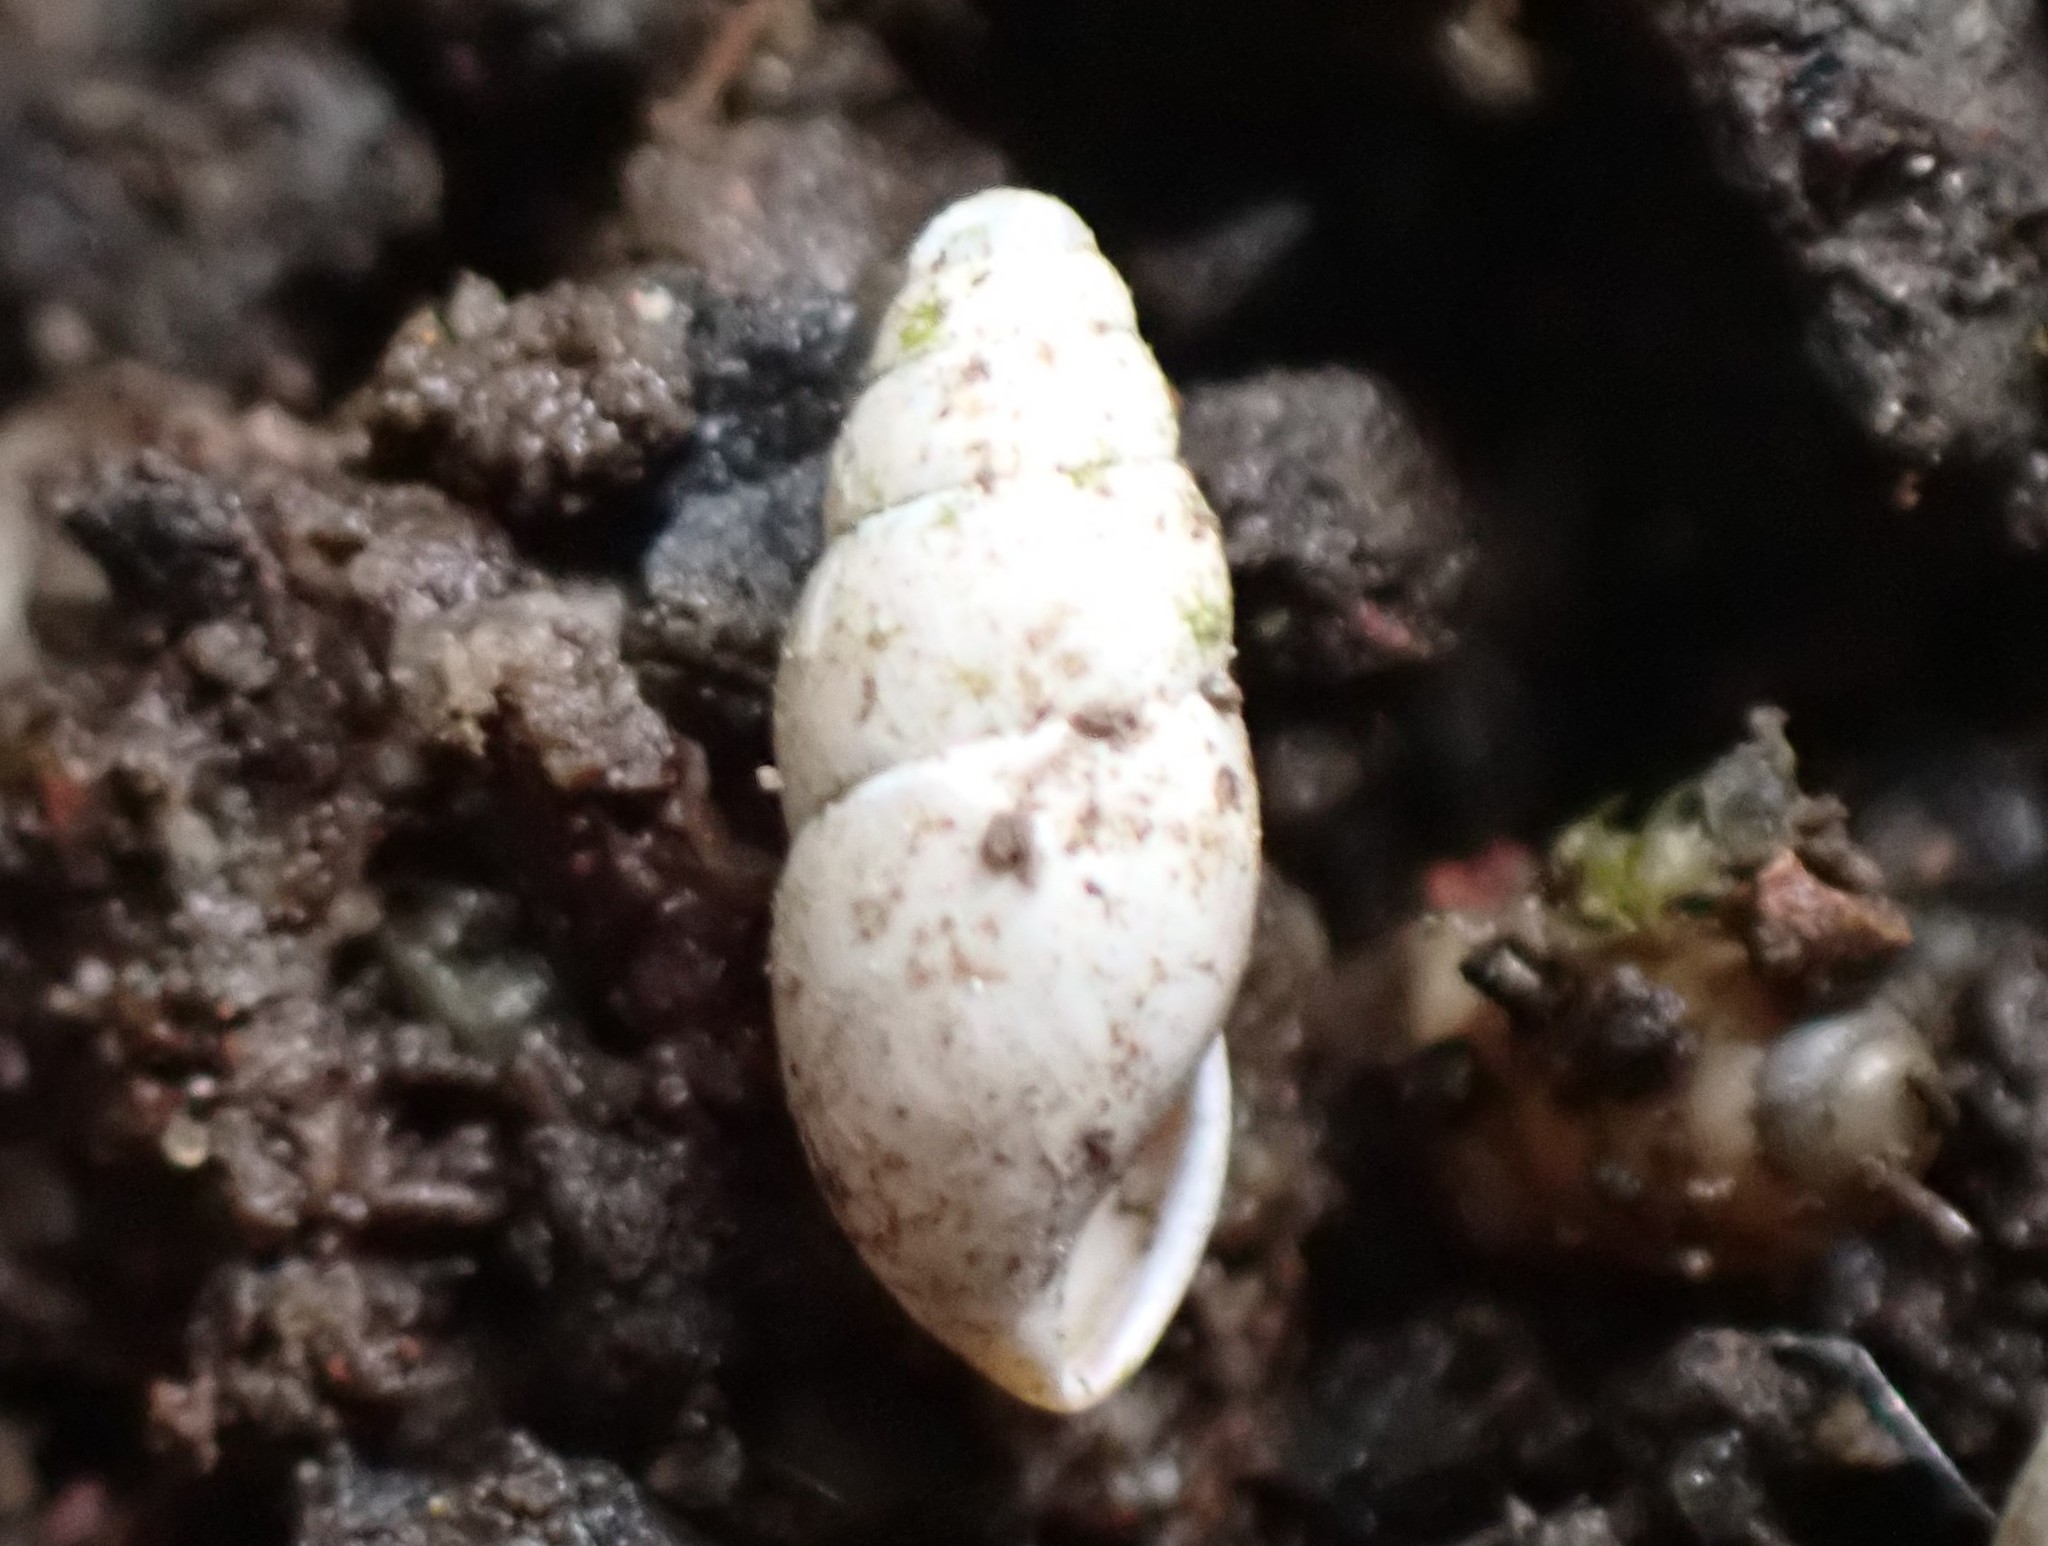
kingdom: Animalia
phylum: Mollusca
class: Gastropoda
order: Stylommatophora
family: Cochlicopidae
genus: Cochlicopa
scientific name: Cochlicopa lubrica
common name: Glossy pillar snail
